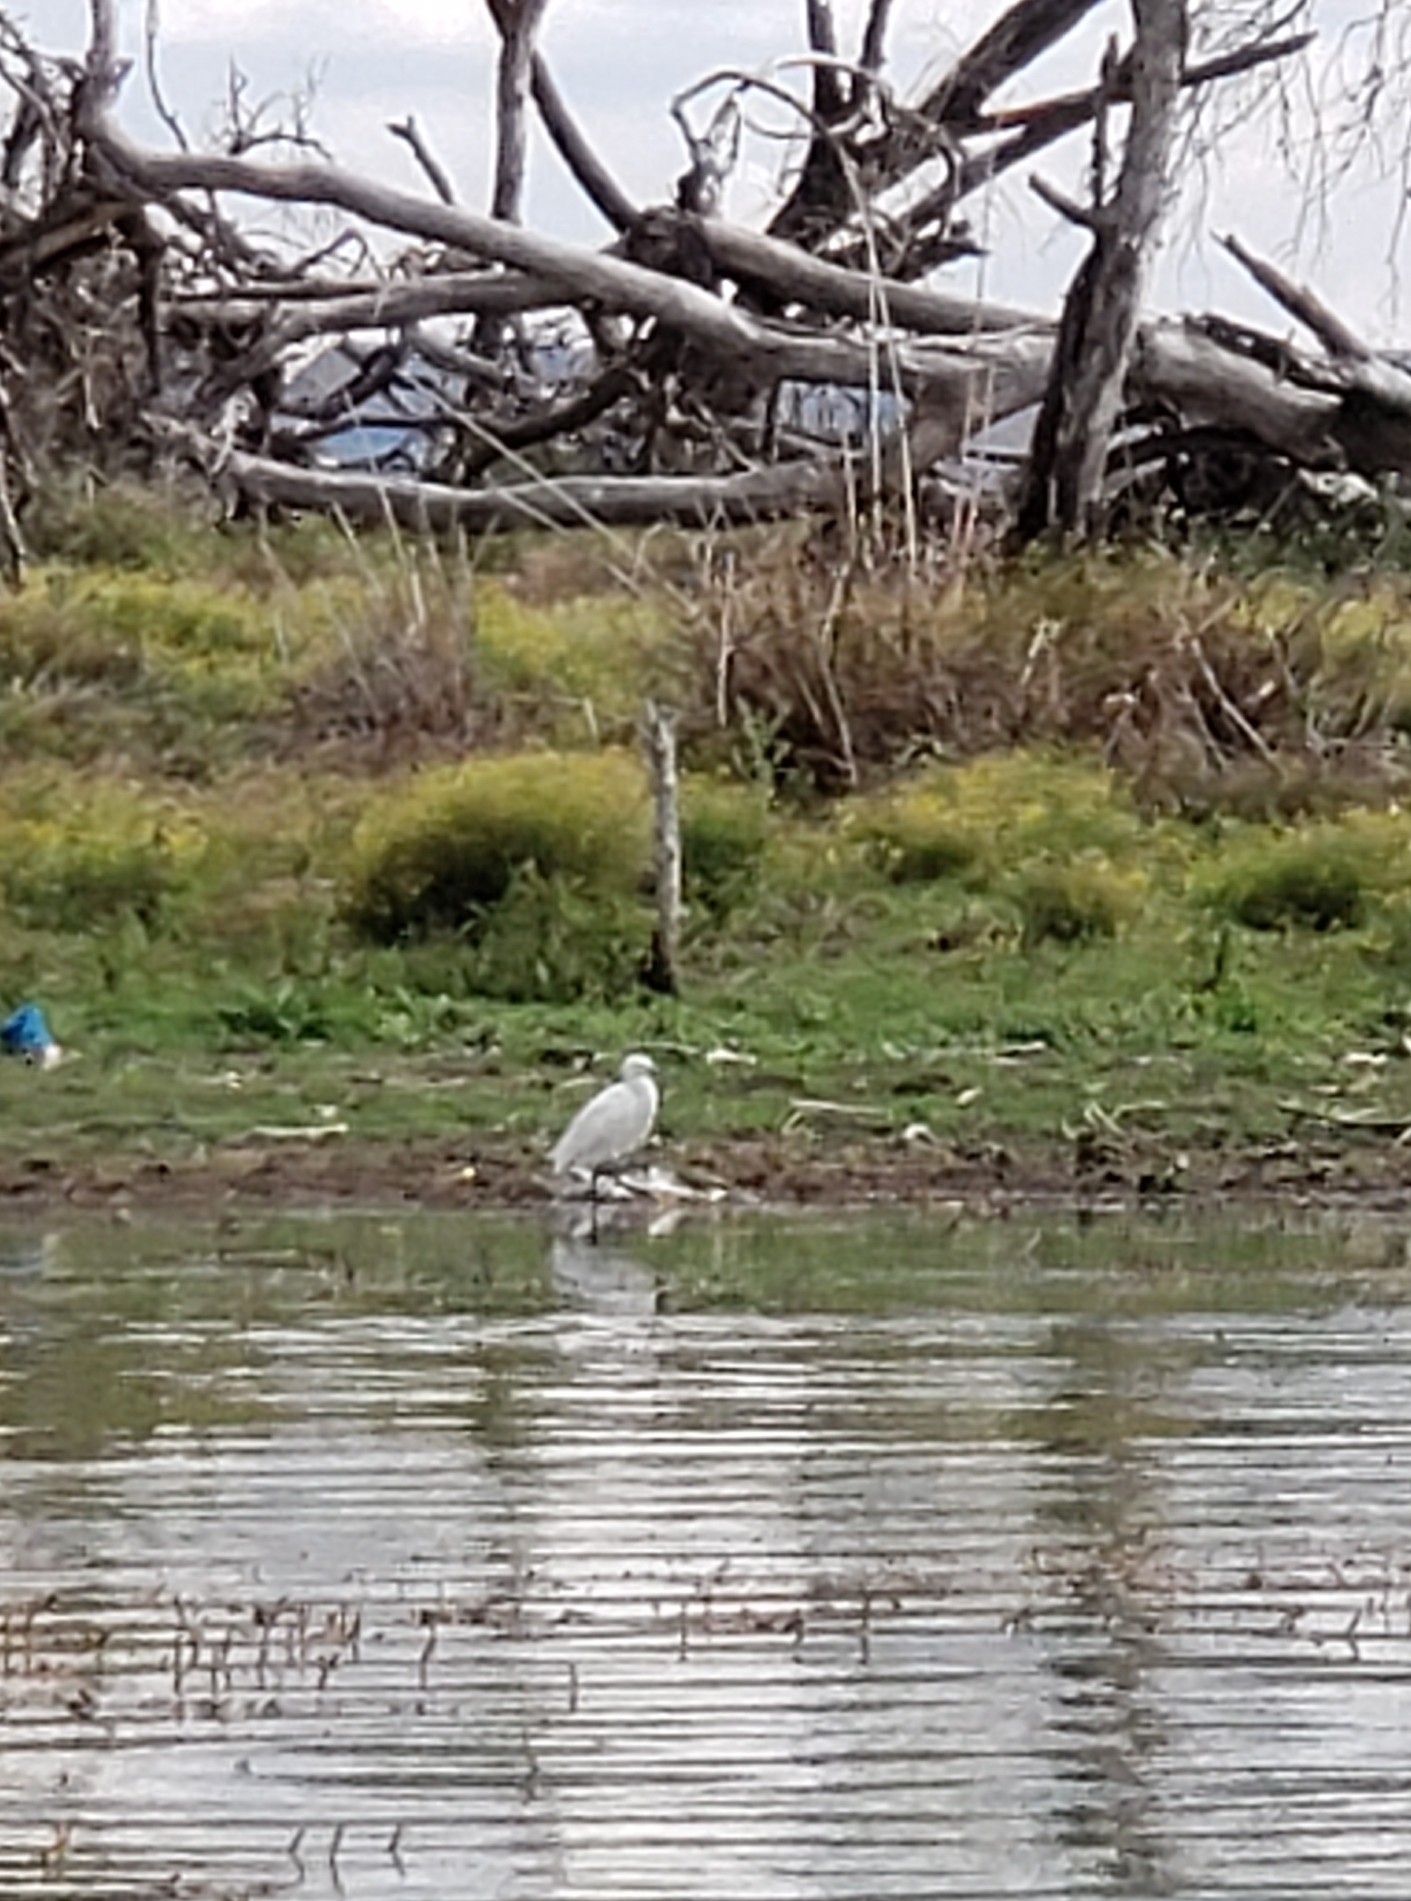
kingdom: Animalia
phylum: Chordata
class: Aves
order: Pelecaniformes
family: Ardeidae
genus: Egretta
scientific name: Egretta garzetta
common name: Little egret
